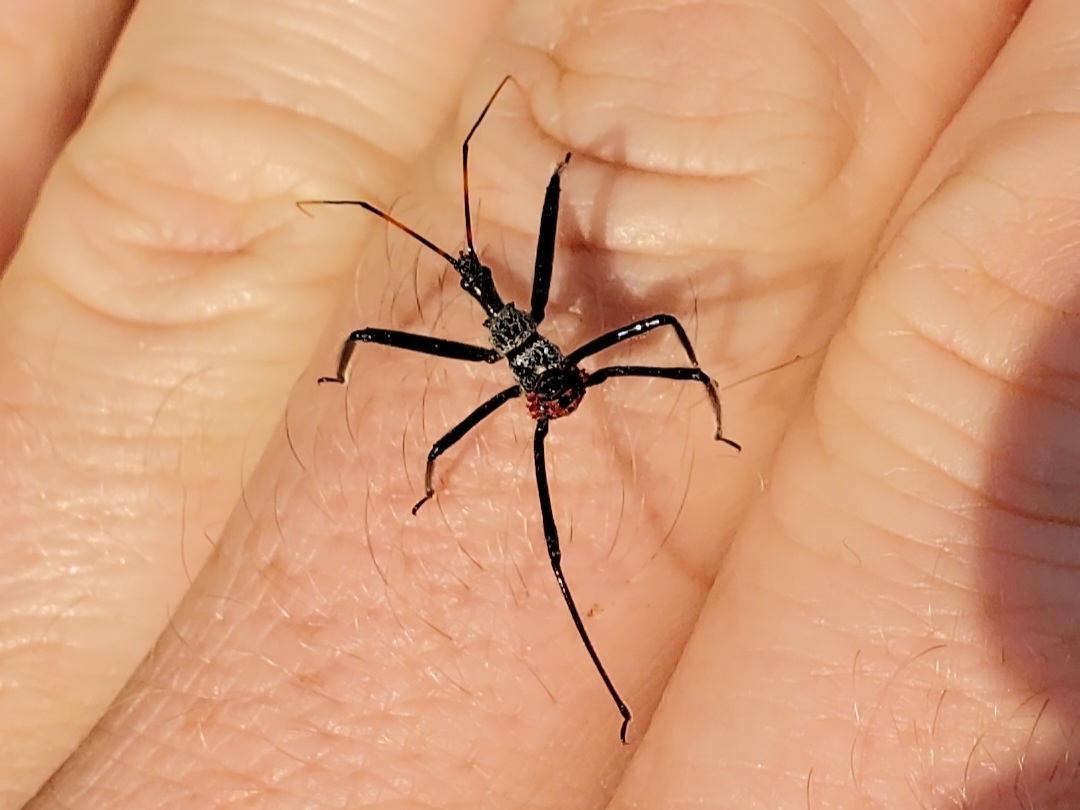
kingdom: Animalia
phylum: Arthropoda
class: Insecta
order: Hemiptera
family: Reduviidae
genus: Arilus
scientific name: Arilus cristatus
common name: North american wheel bug
